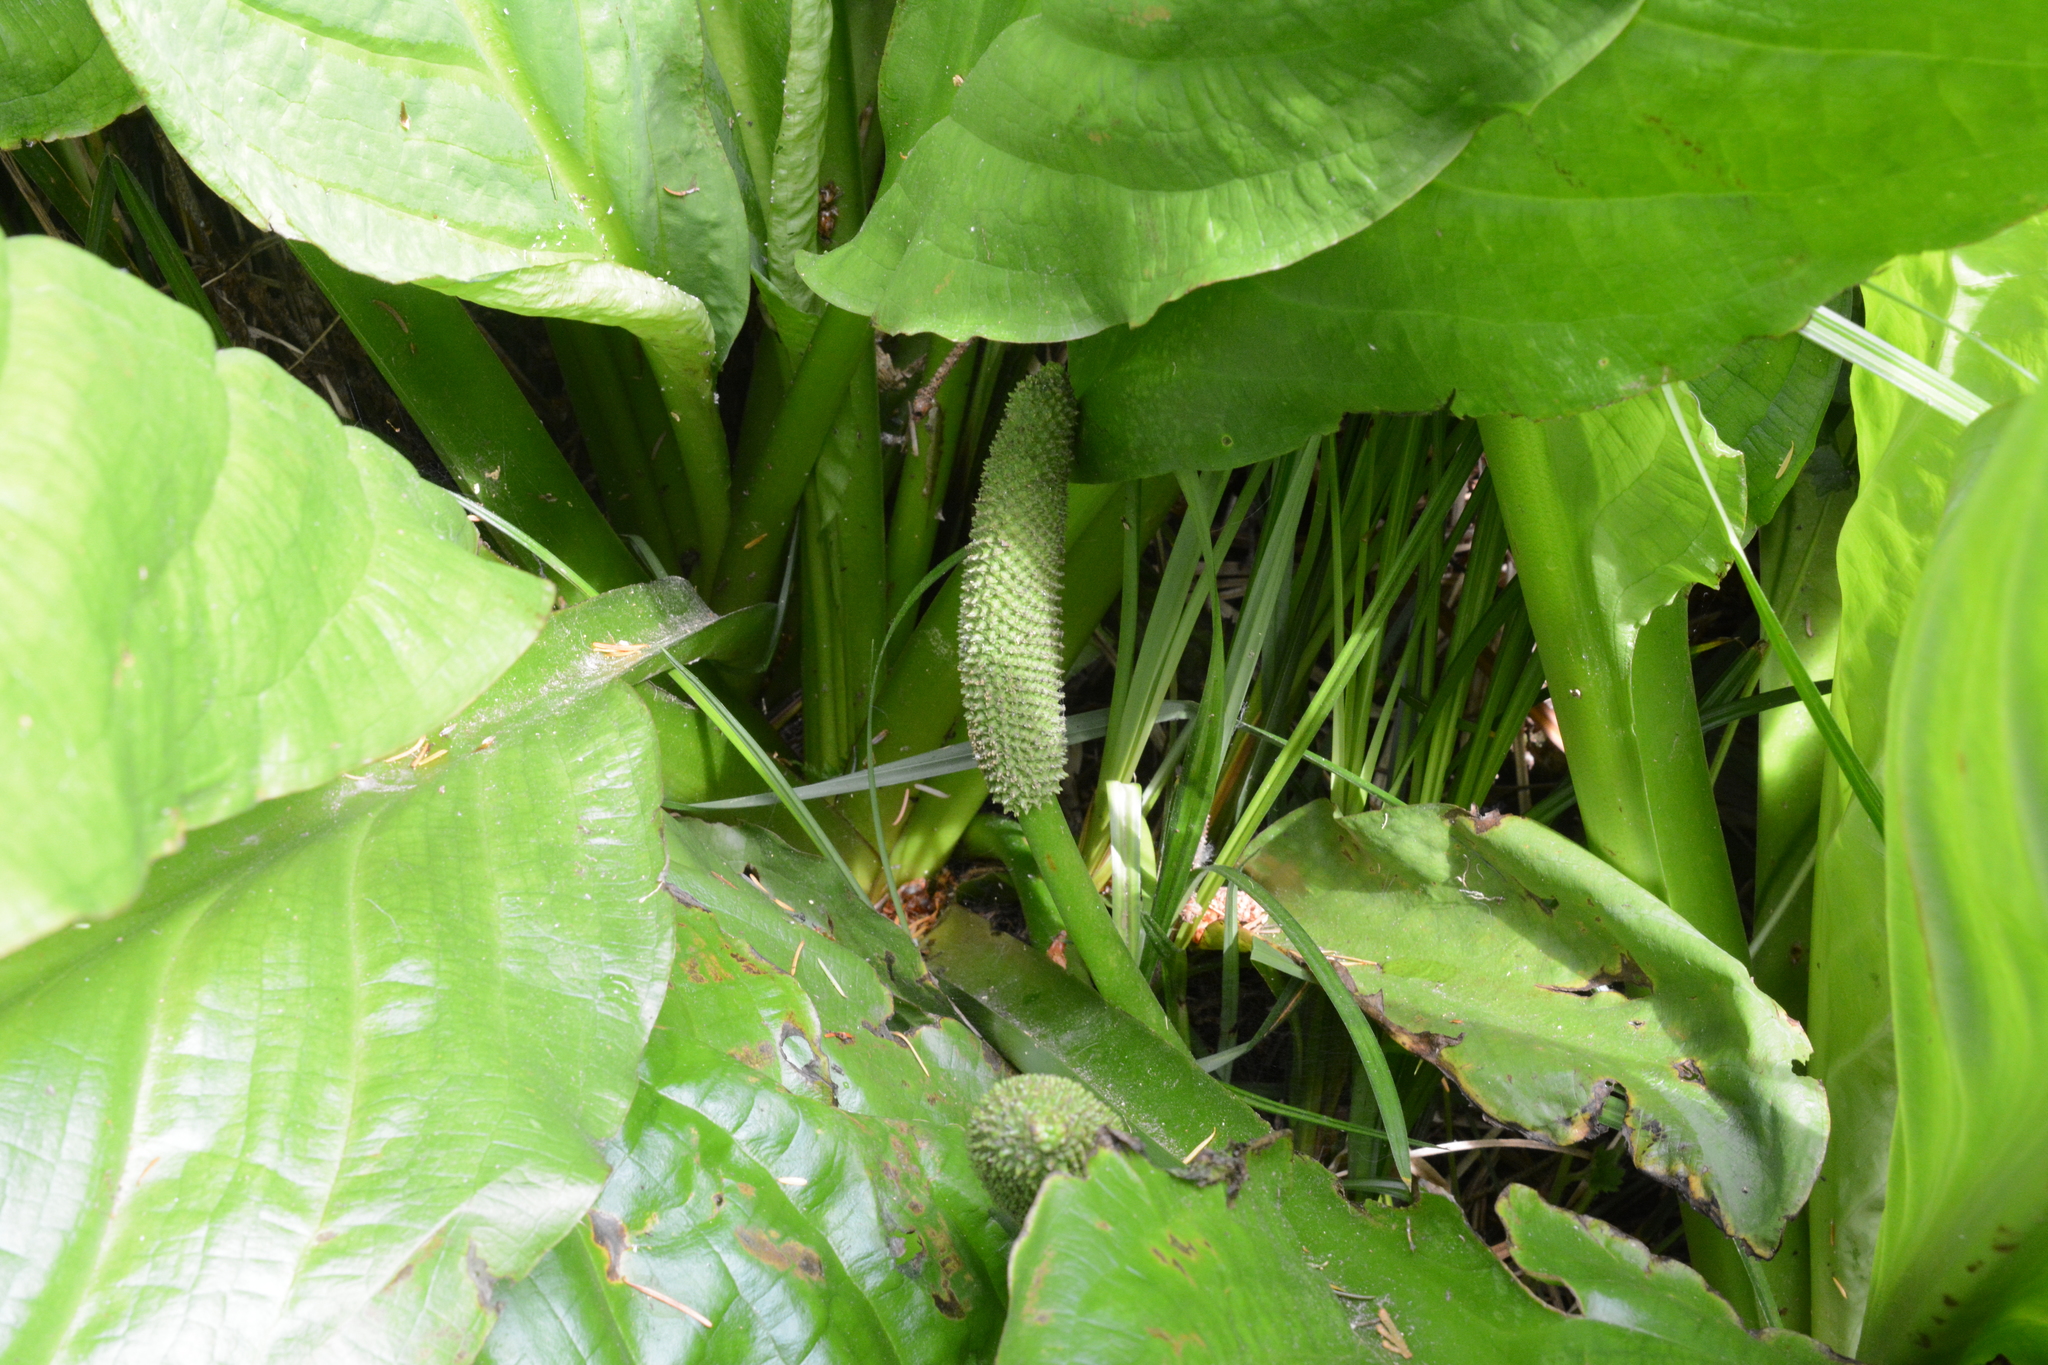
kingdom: Plantae
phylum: Tracheophyta
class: Liliopsida
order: Alismatales
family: Araceae
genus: Lysichiton
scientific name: Lysichiton americanus
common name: American skunk cabbage
